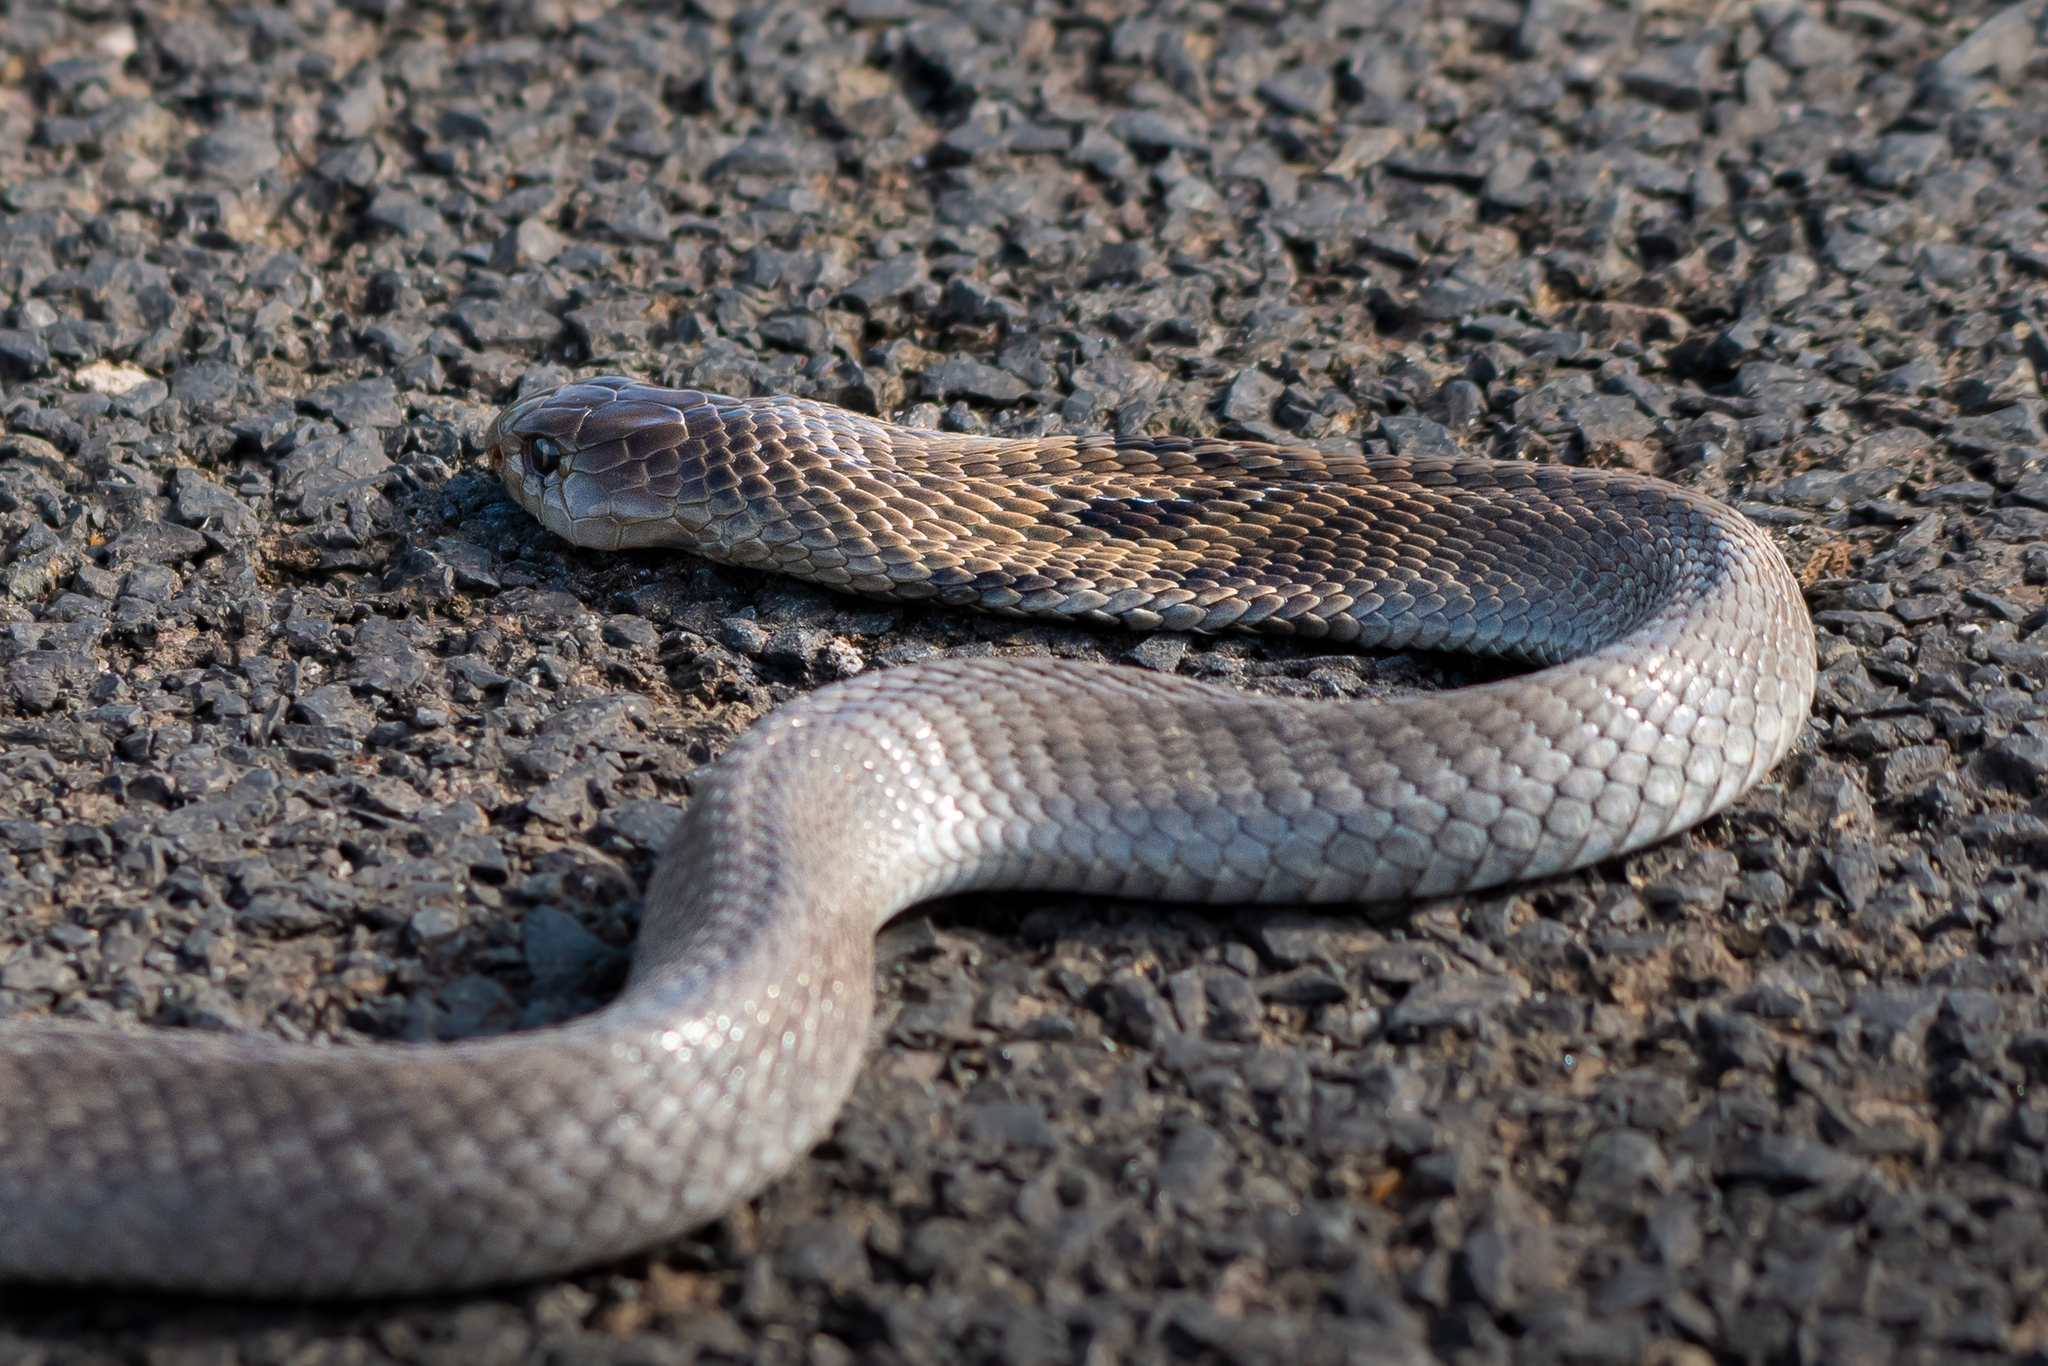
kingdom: Animalia
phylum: Chordata
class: Squamata
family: Elapidae
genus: Naja
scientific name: Naja naja
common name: Indian cobra
